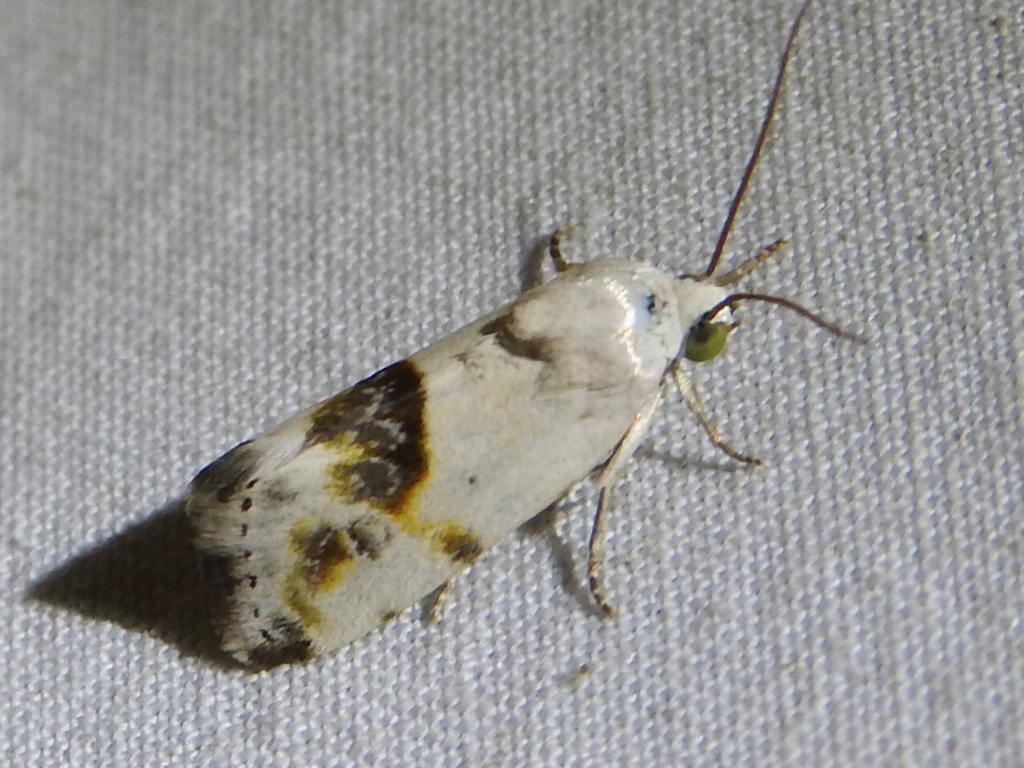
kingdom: Animalia
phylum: Arthropoda
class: Insecta
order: Lepidoptera
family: Noctuidae
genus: Acontia
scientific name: Acontia candefacta
